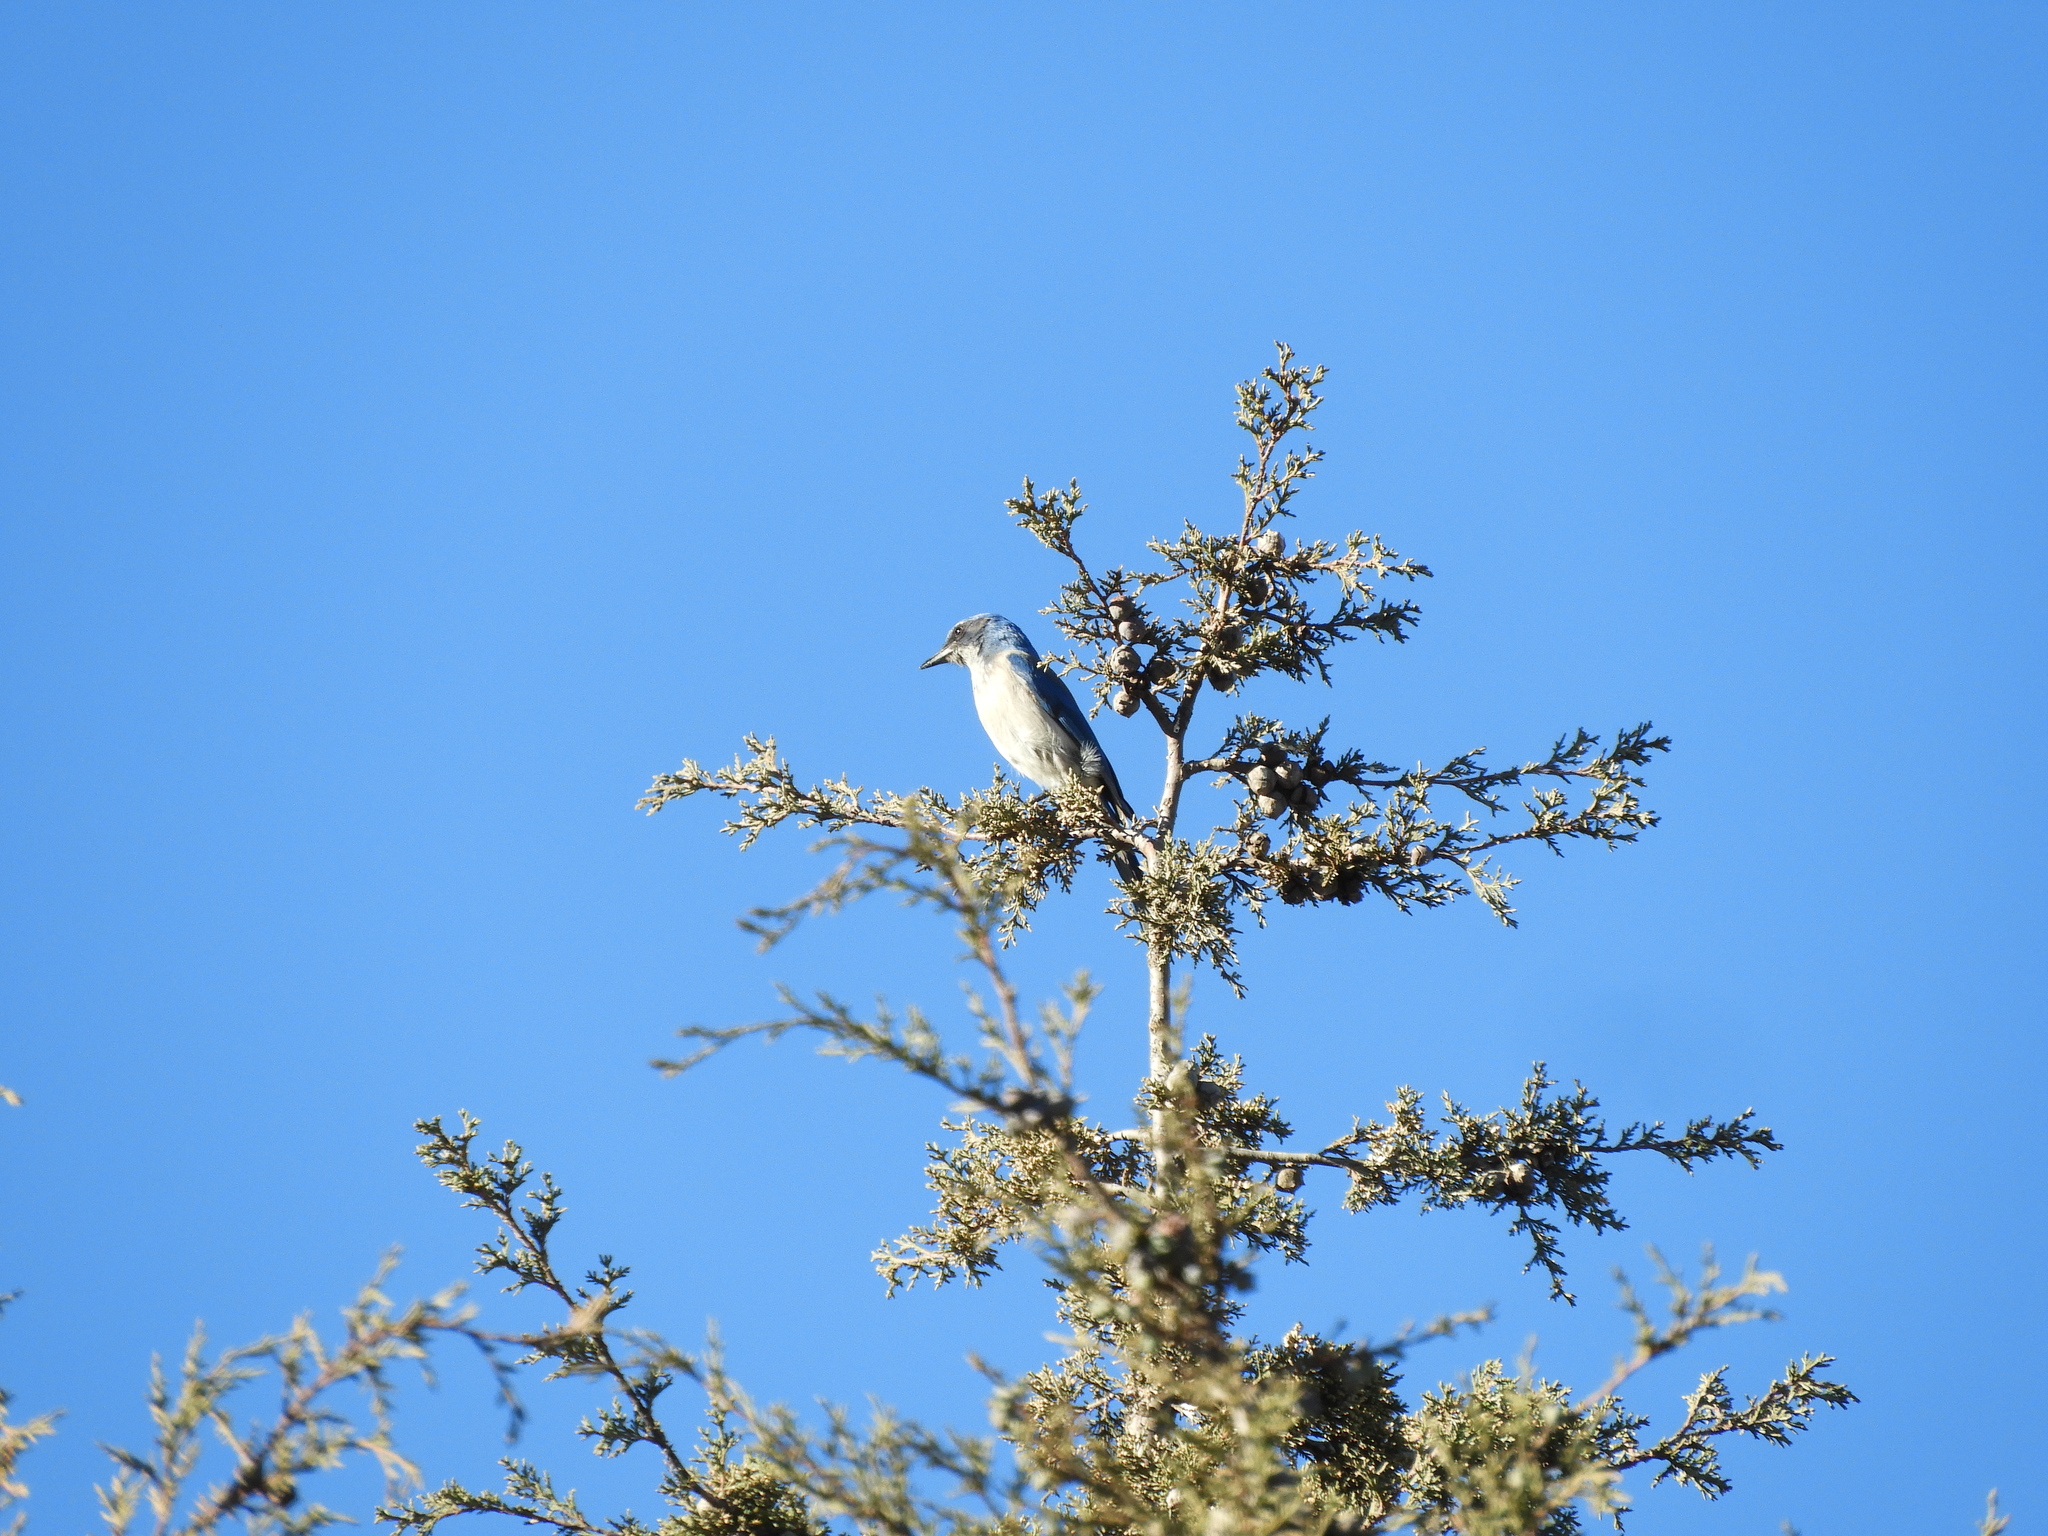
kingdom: Animalia
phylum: Chordata
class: Aves
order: Passeriformes
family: Corvidae
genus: Aphelocoma
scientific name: Aphelocoma woodhouseii
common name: Woodhouse's scrub-jay
